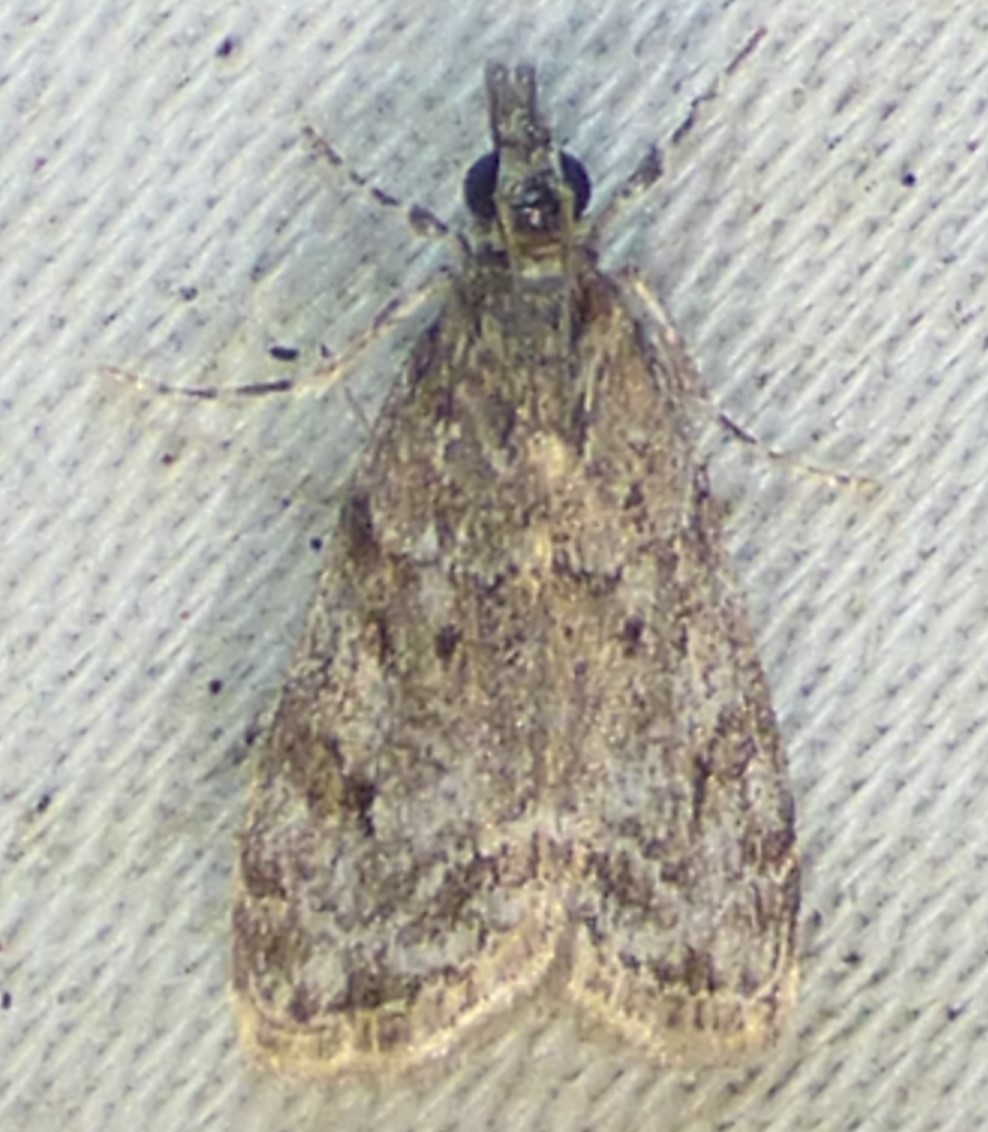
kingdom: Animalia
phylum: Arthropoda
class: Insecta
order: Lepidoptera
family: Crambidae
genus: Eudonia
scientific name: Eudonia heterosalis
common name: Mcdunnough's eudonia
